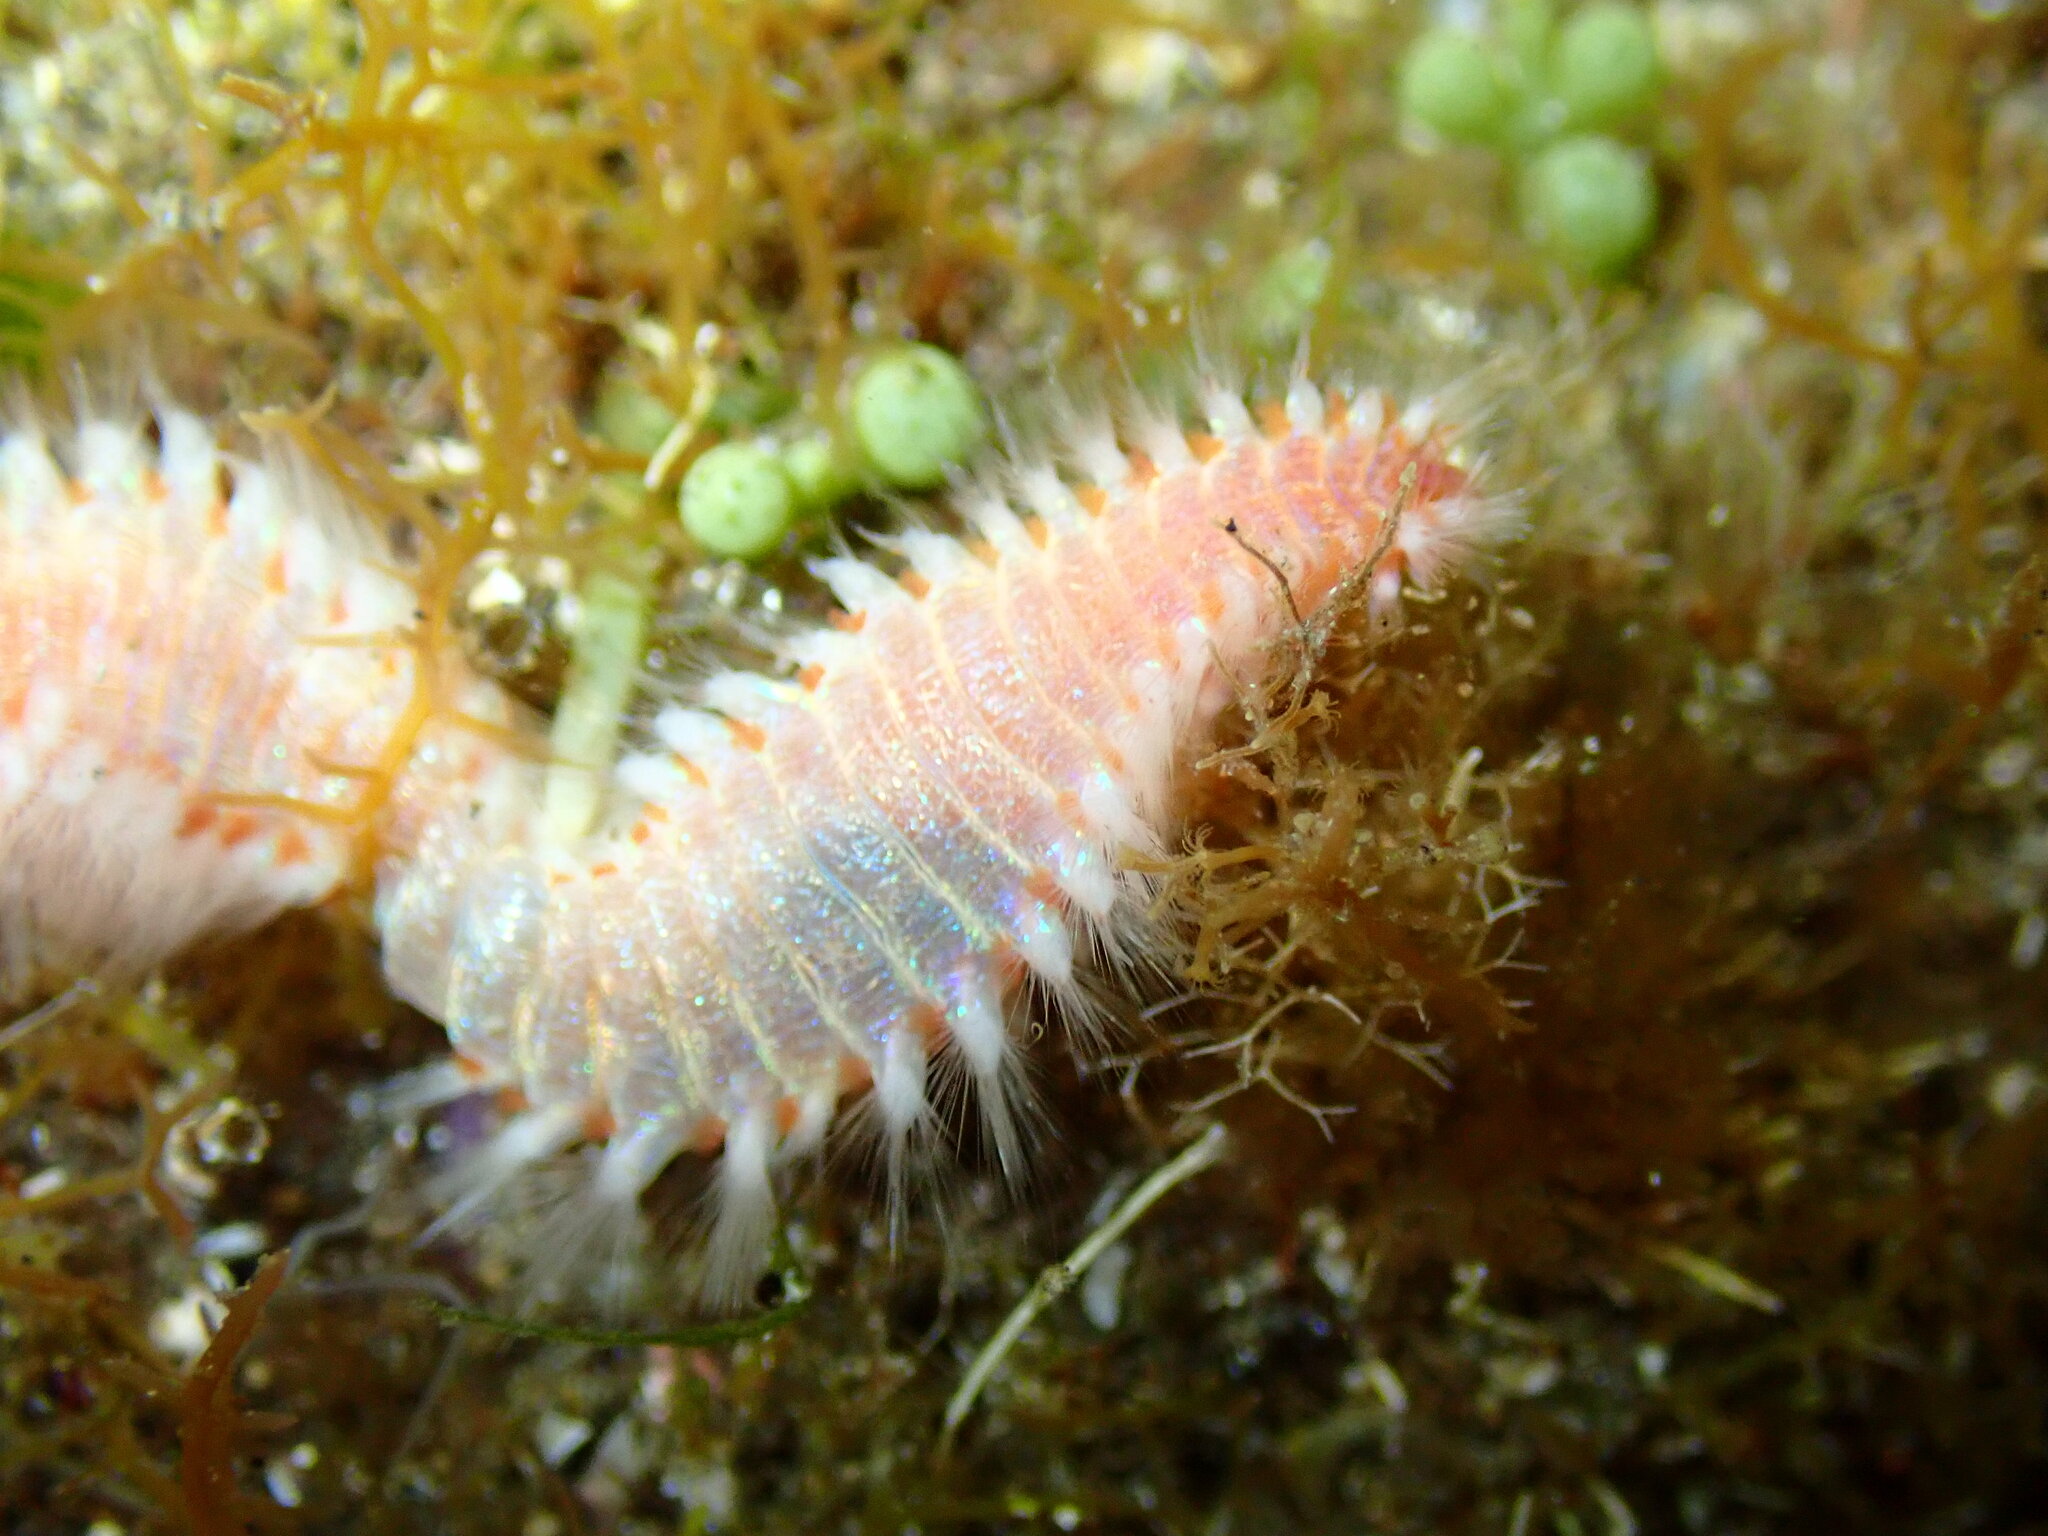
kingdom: Animalia
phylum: Annelida
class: Polychaeta
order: Amphinomida
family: Amphinomidae
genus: Eurythoe
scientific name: Eurythoe complanata
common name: Fireworm
